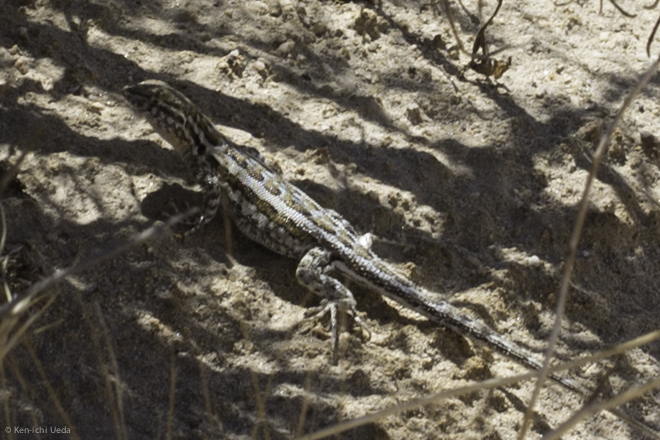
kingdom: Animalia
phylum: Chordata
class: Squamata
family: Phrynosomatidae
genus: Uta
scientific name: Uta stansburiana
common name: Side-blotched lizard
